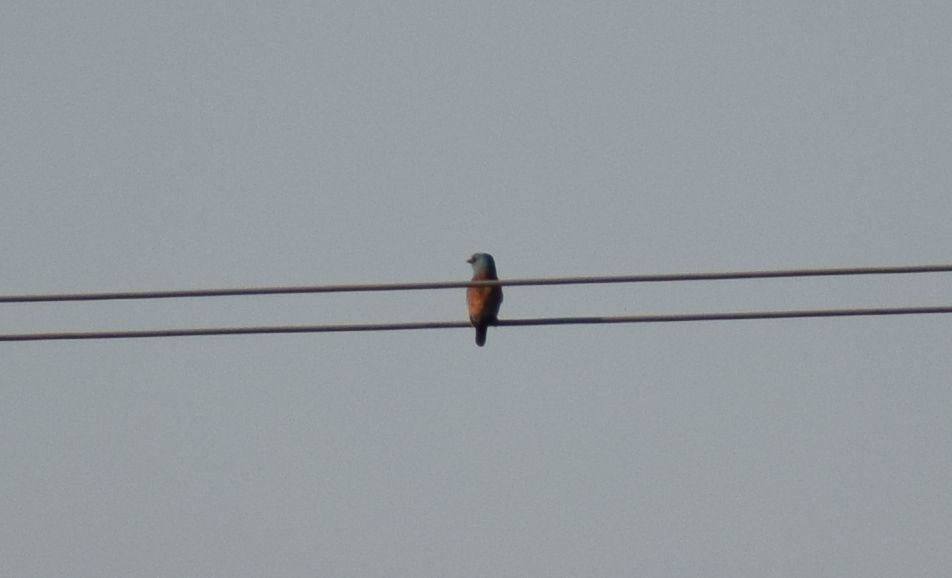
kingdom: Animalia
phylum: Chordata
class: Aves
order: Coraciiformes
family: Coraciidae
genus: Coracias
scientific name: Coracias garrulus
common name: European roller
